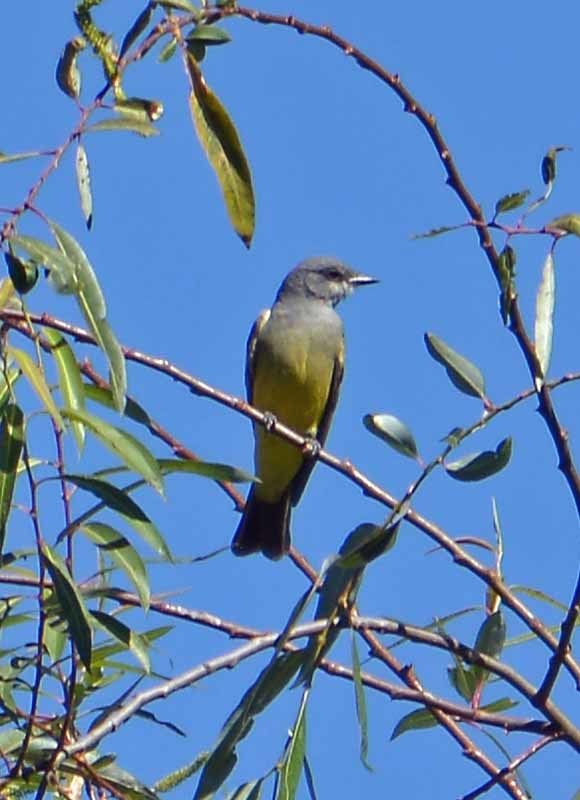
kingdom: Animalia
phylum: Chordata
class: Aves
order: Passeriformes
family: Tyrannidae
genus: Tyrannus
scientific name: Tyrannus vociferans
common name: Cassin's kingbird
